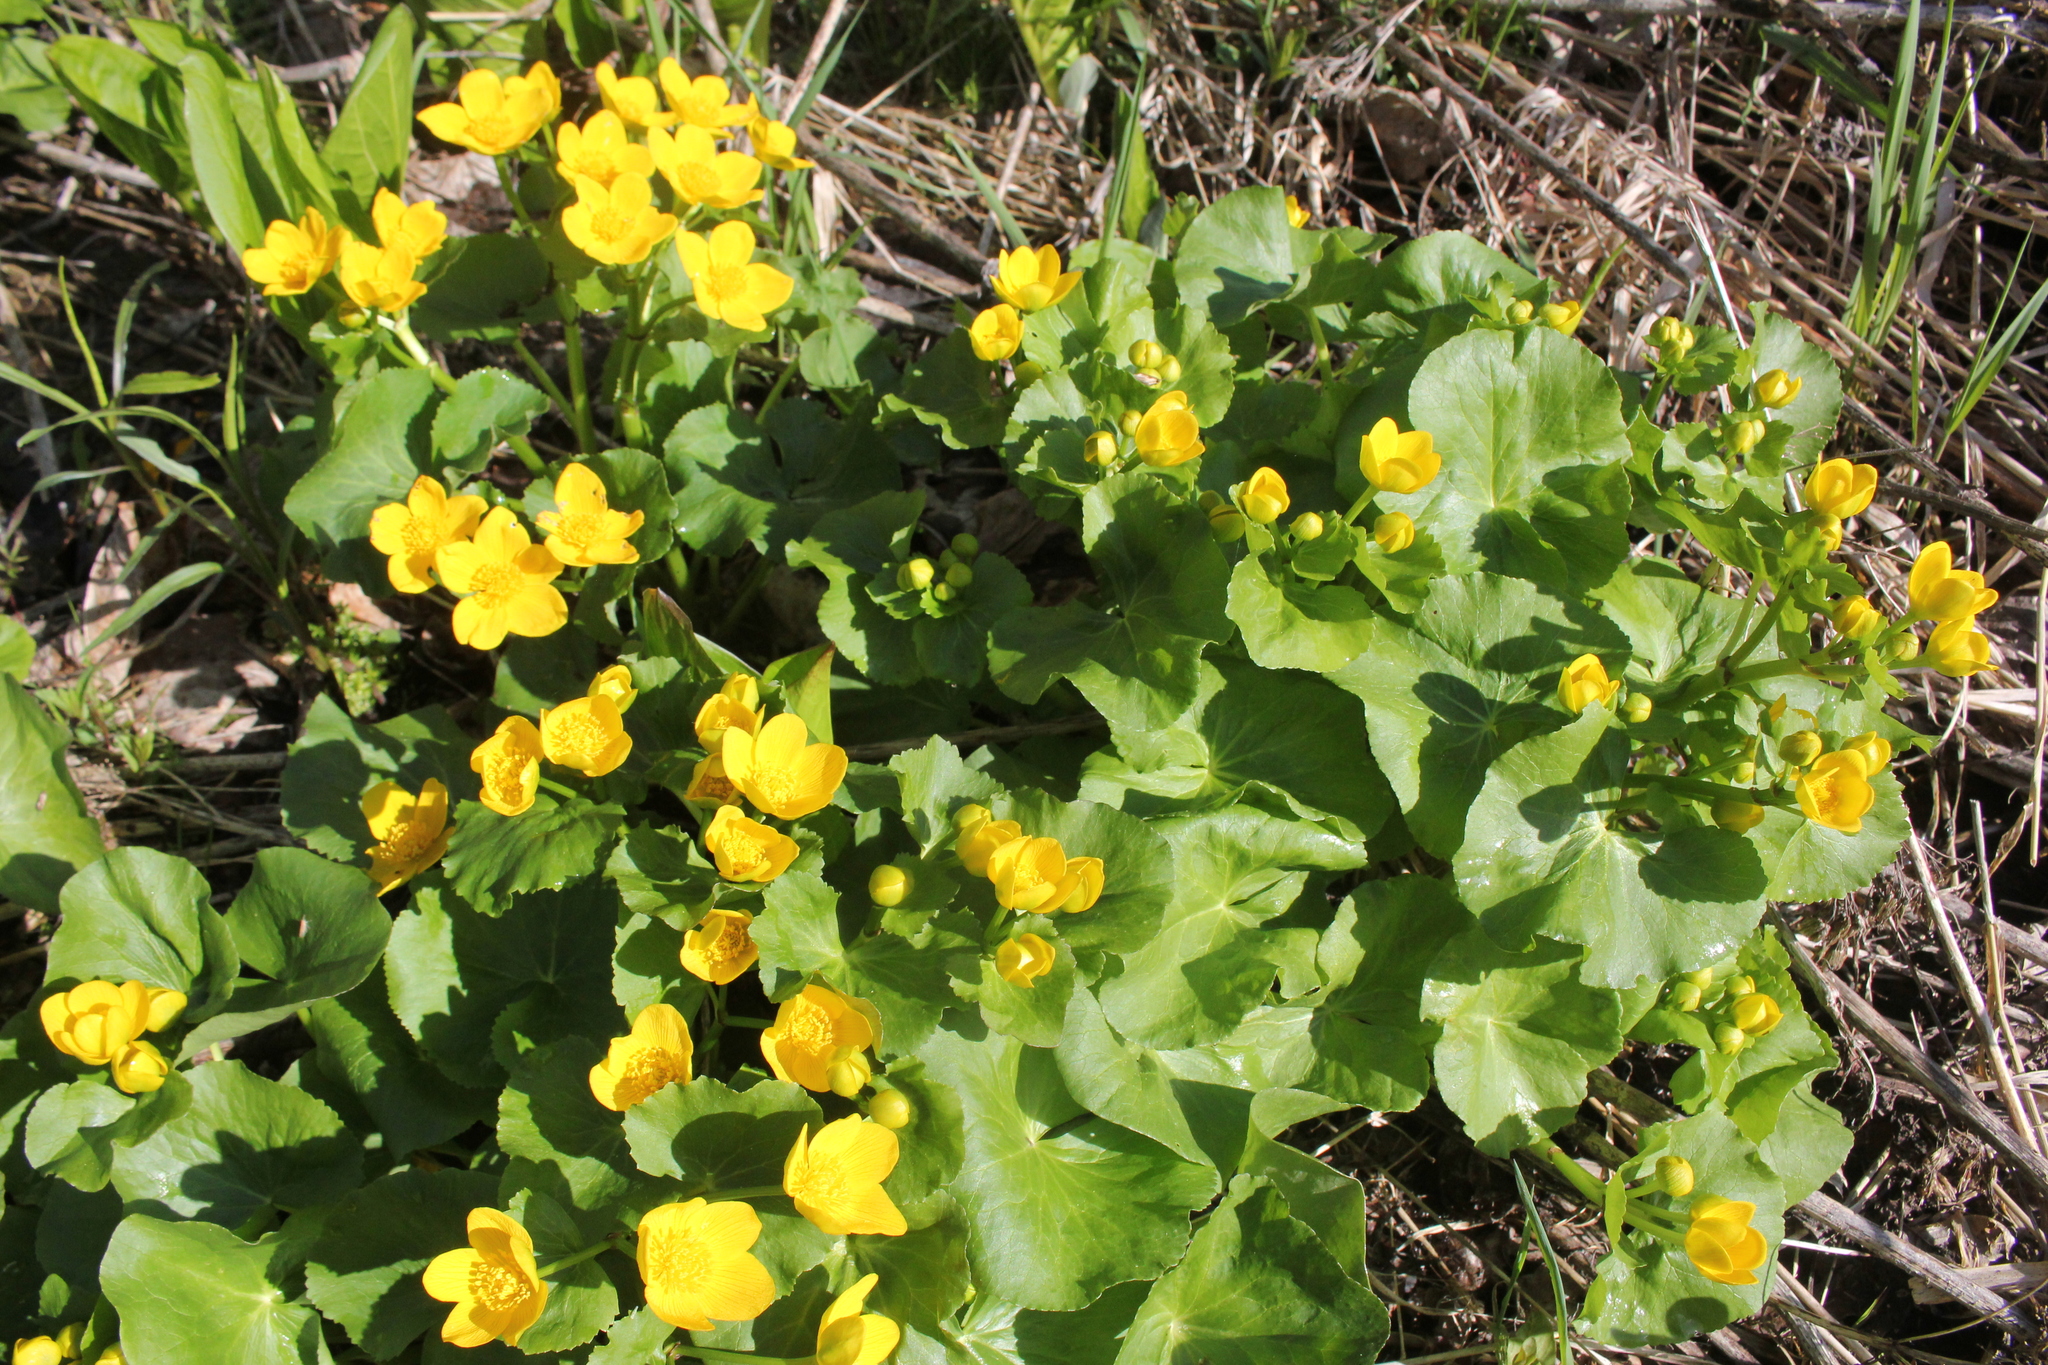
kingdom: Plantae
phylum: Tracheophyta
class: Magnoliopsida
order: Ranunculales
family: Ranunculaceae
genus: Caltha
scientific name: Caltha palustris
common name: Marsh marigold
